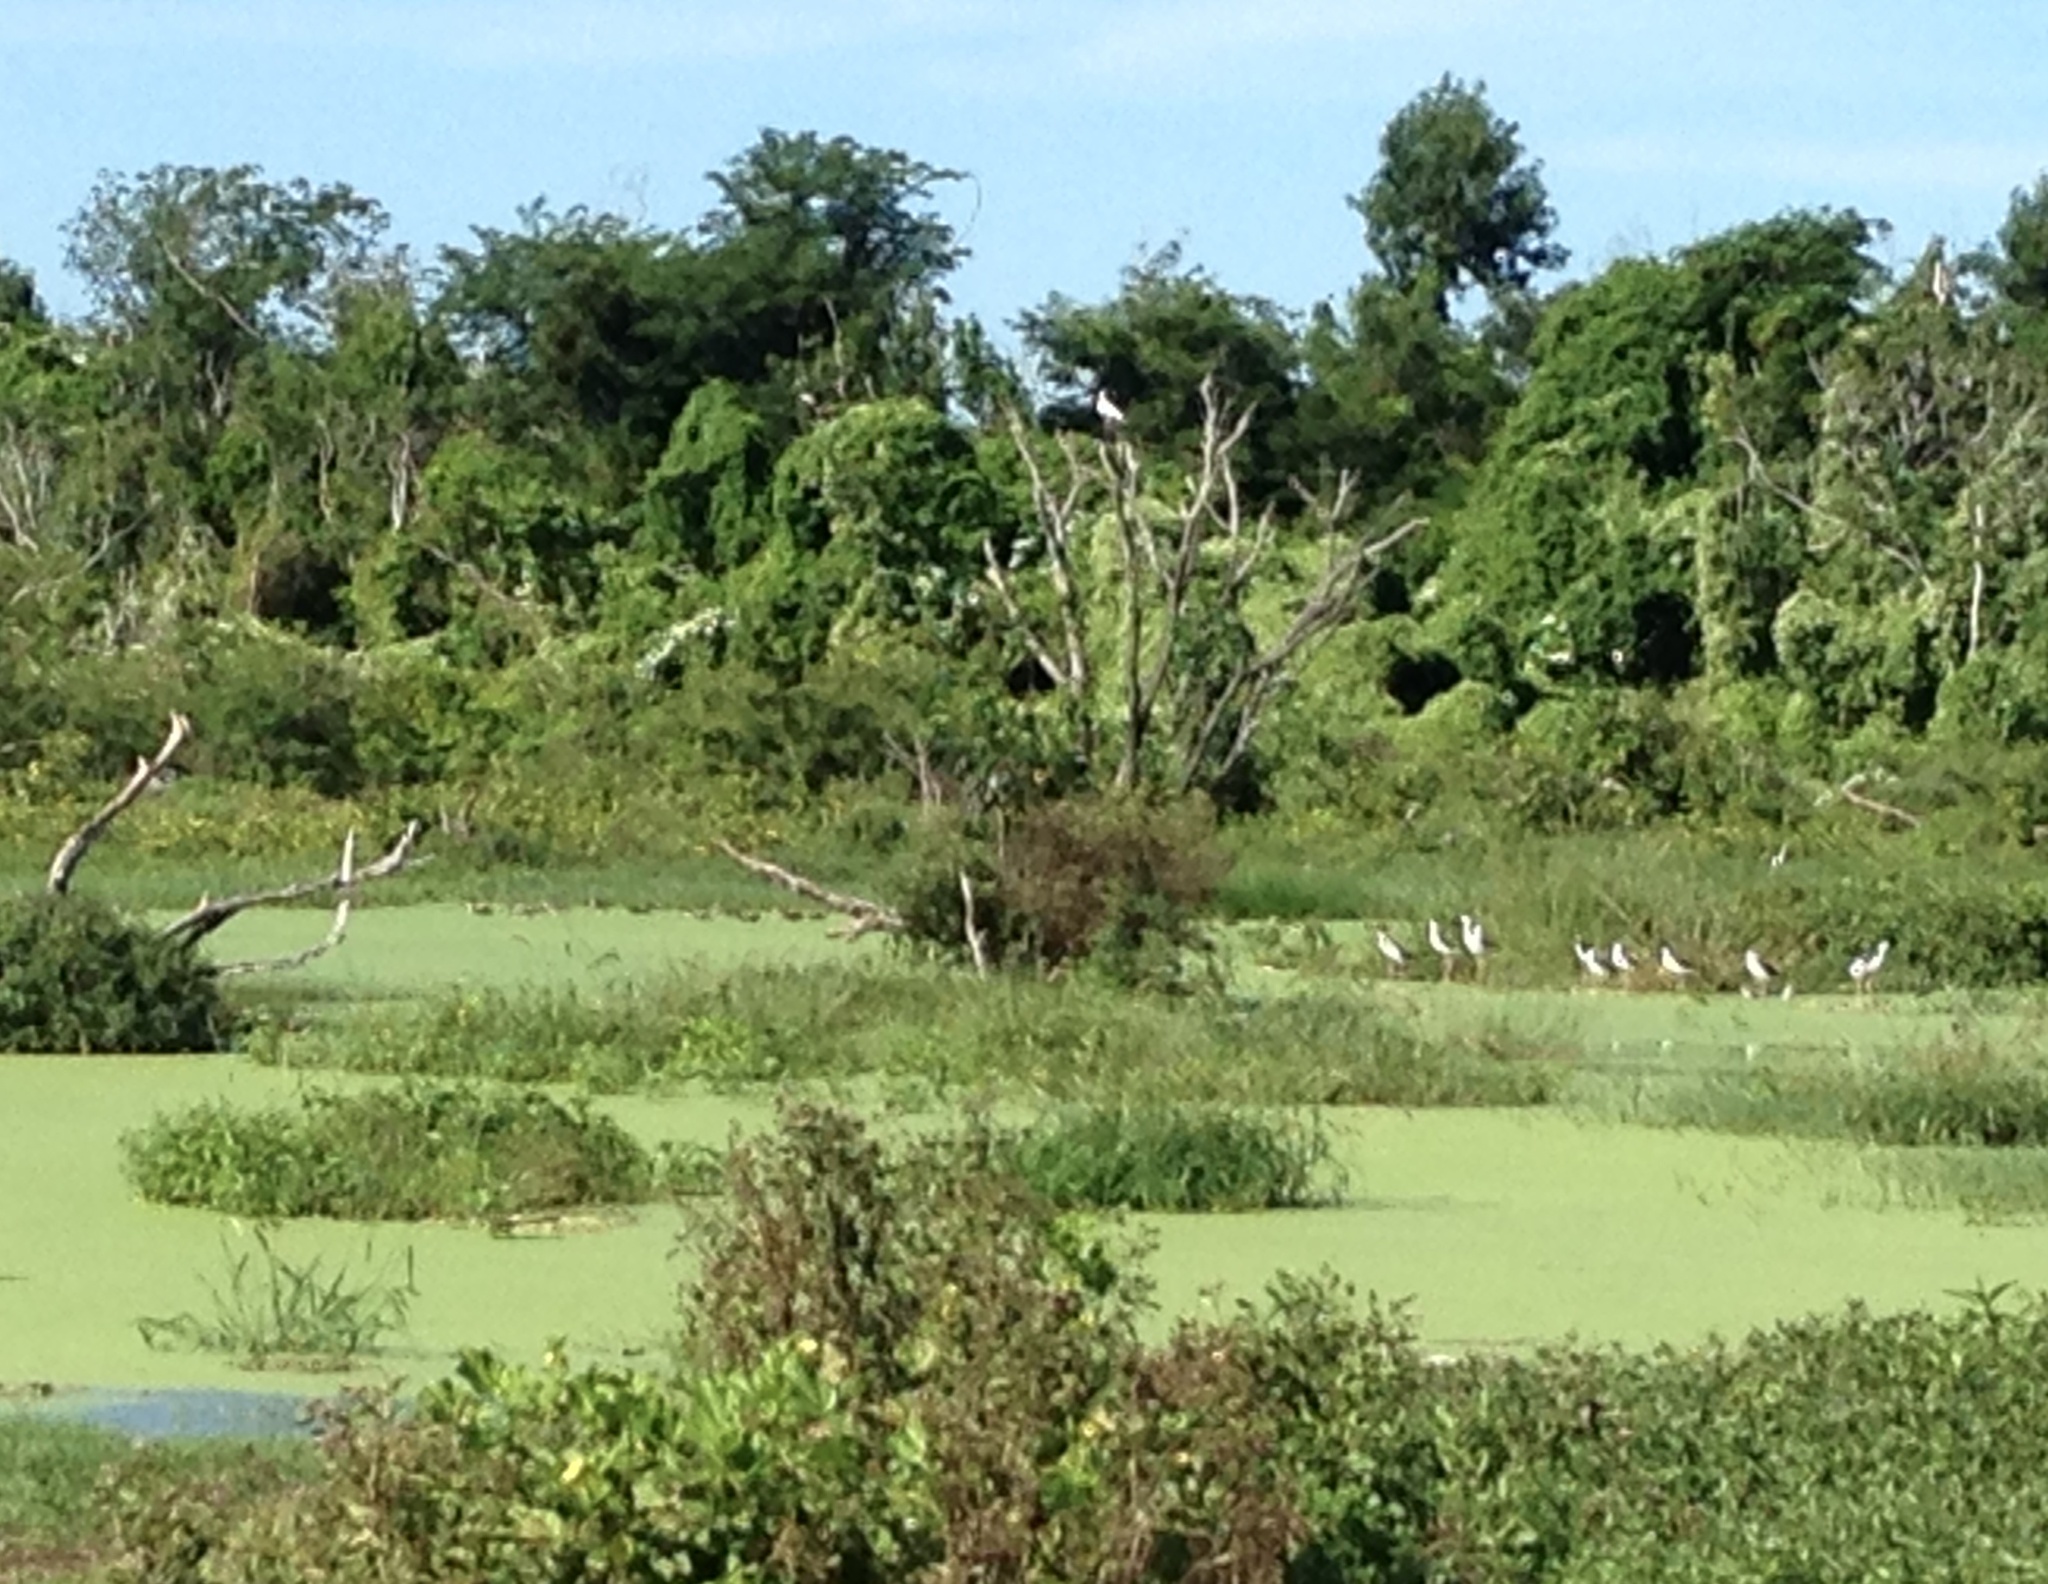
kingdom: Animalia
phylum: Chordata
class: Aves
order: Charadriiformes
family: Recurvirostridae
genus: Himantopus
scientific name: Himantopus mexicanus
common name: Black-necked stilt
